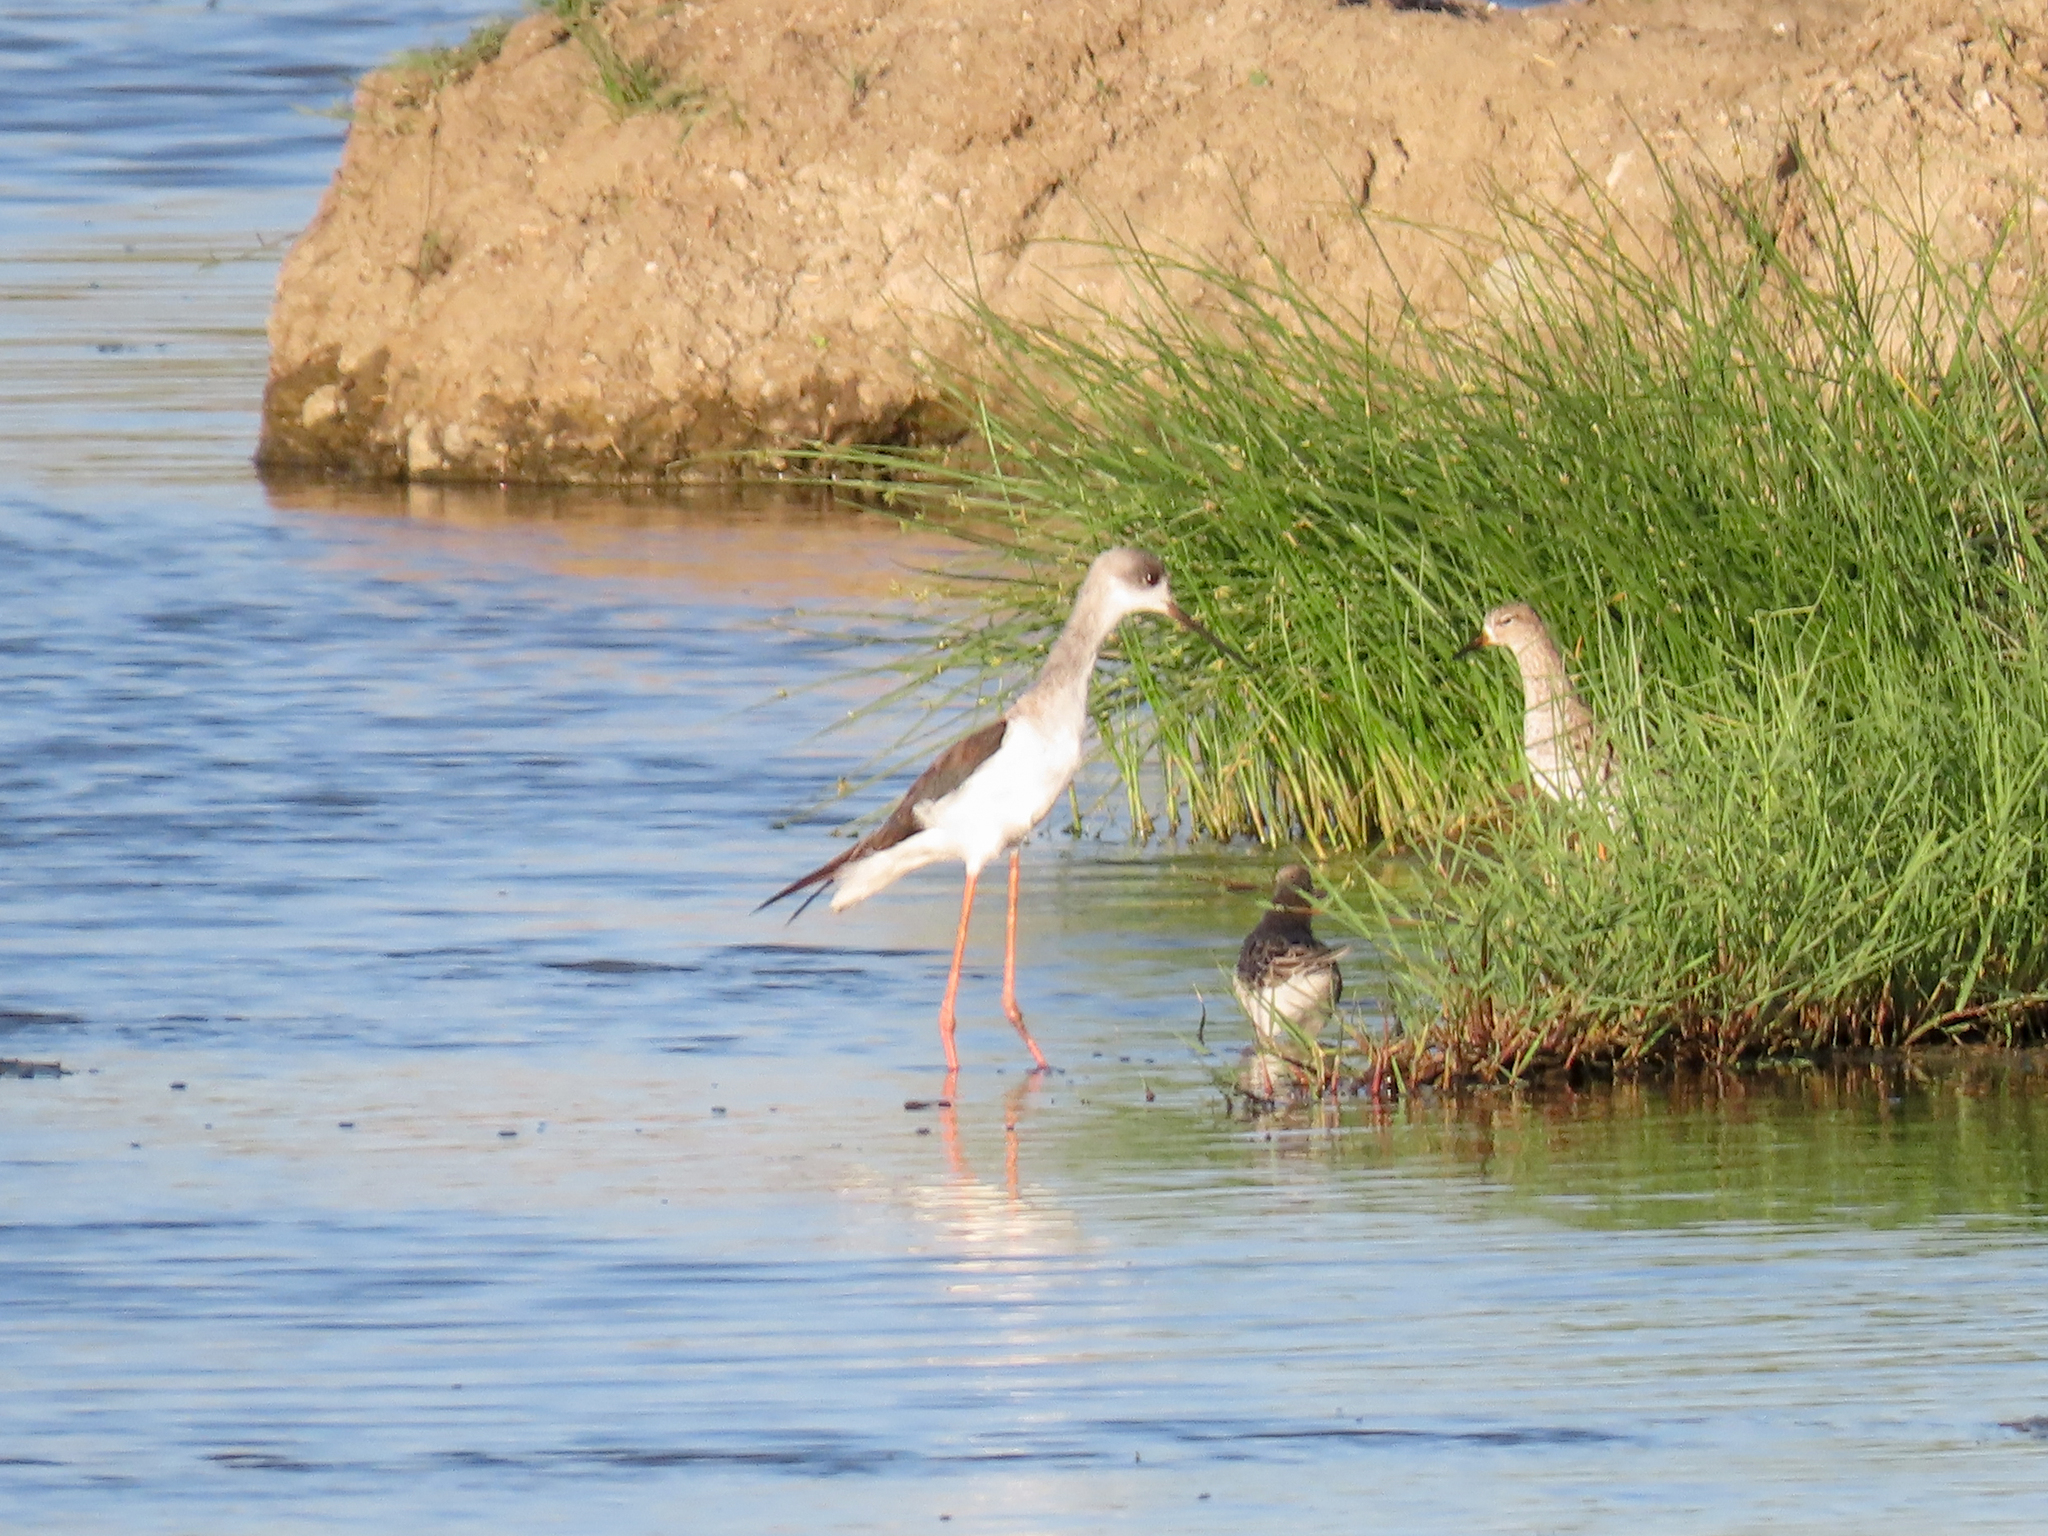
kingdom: Animalia
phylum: Chordata
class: Aves
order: Charadriiformes
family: Recurvirostridae
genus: Himantopus
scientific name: Himantopus himantopus
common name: Black-winged stilt
